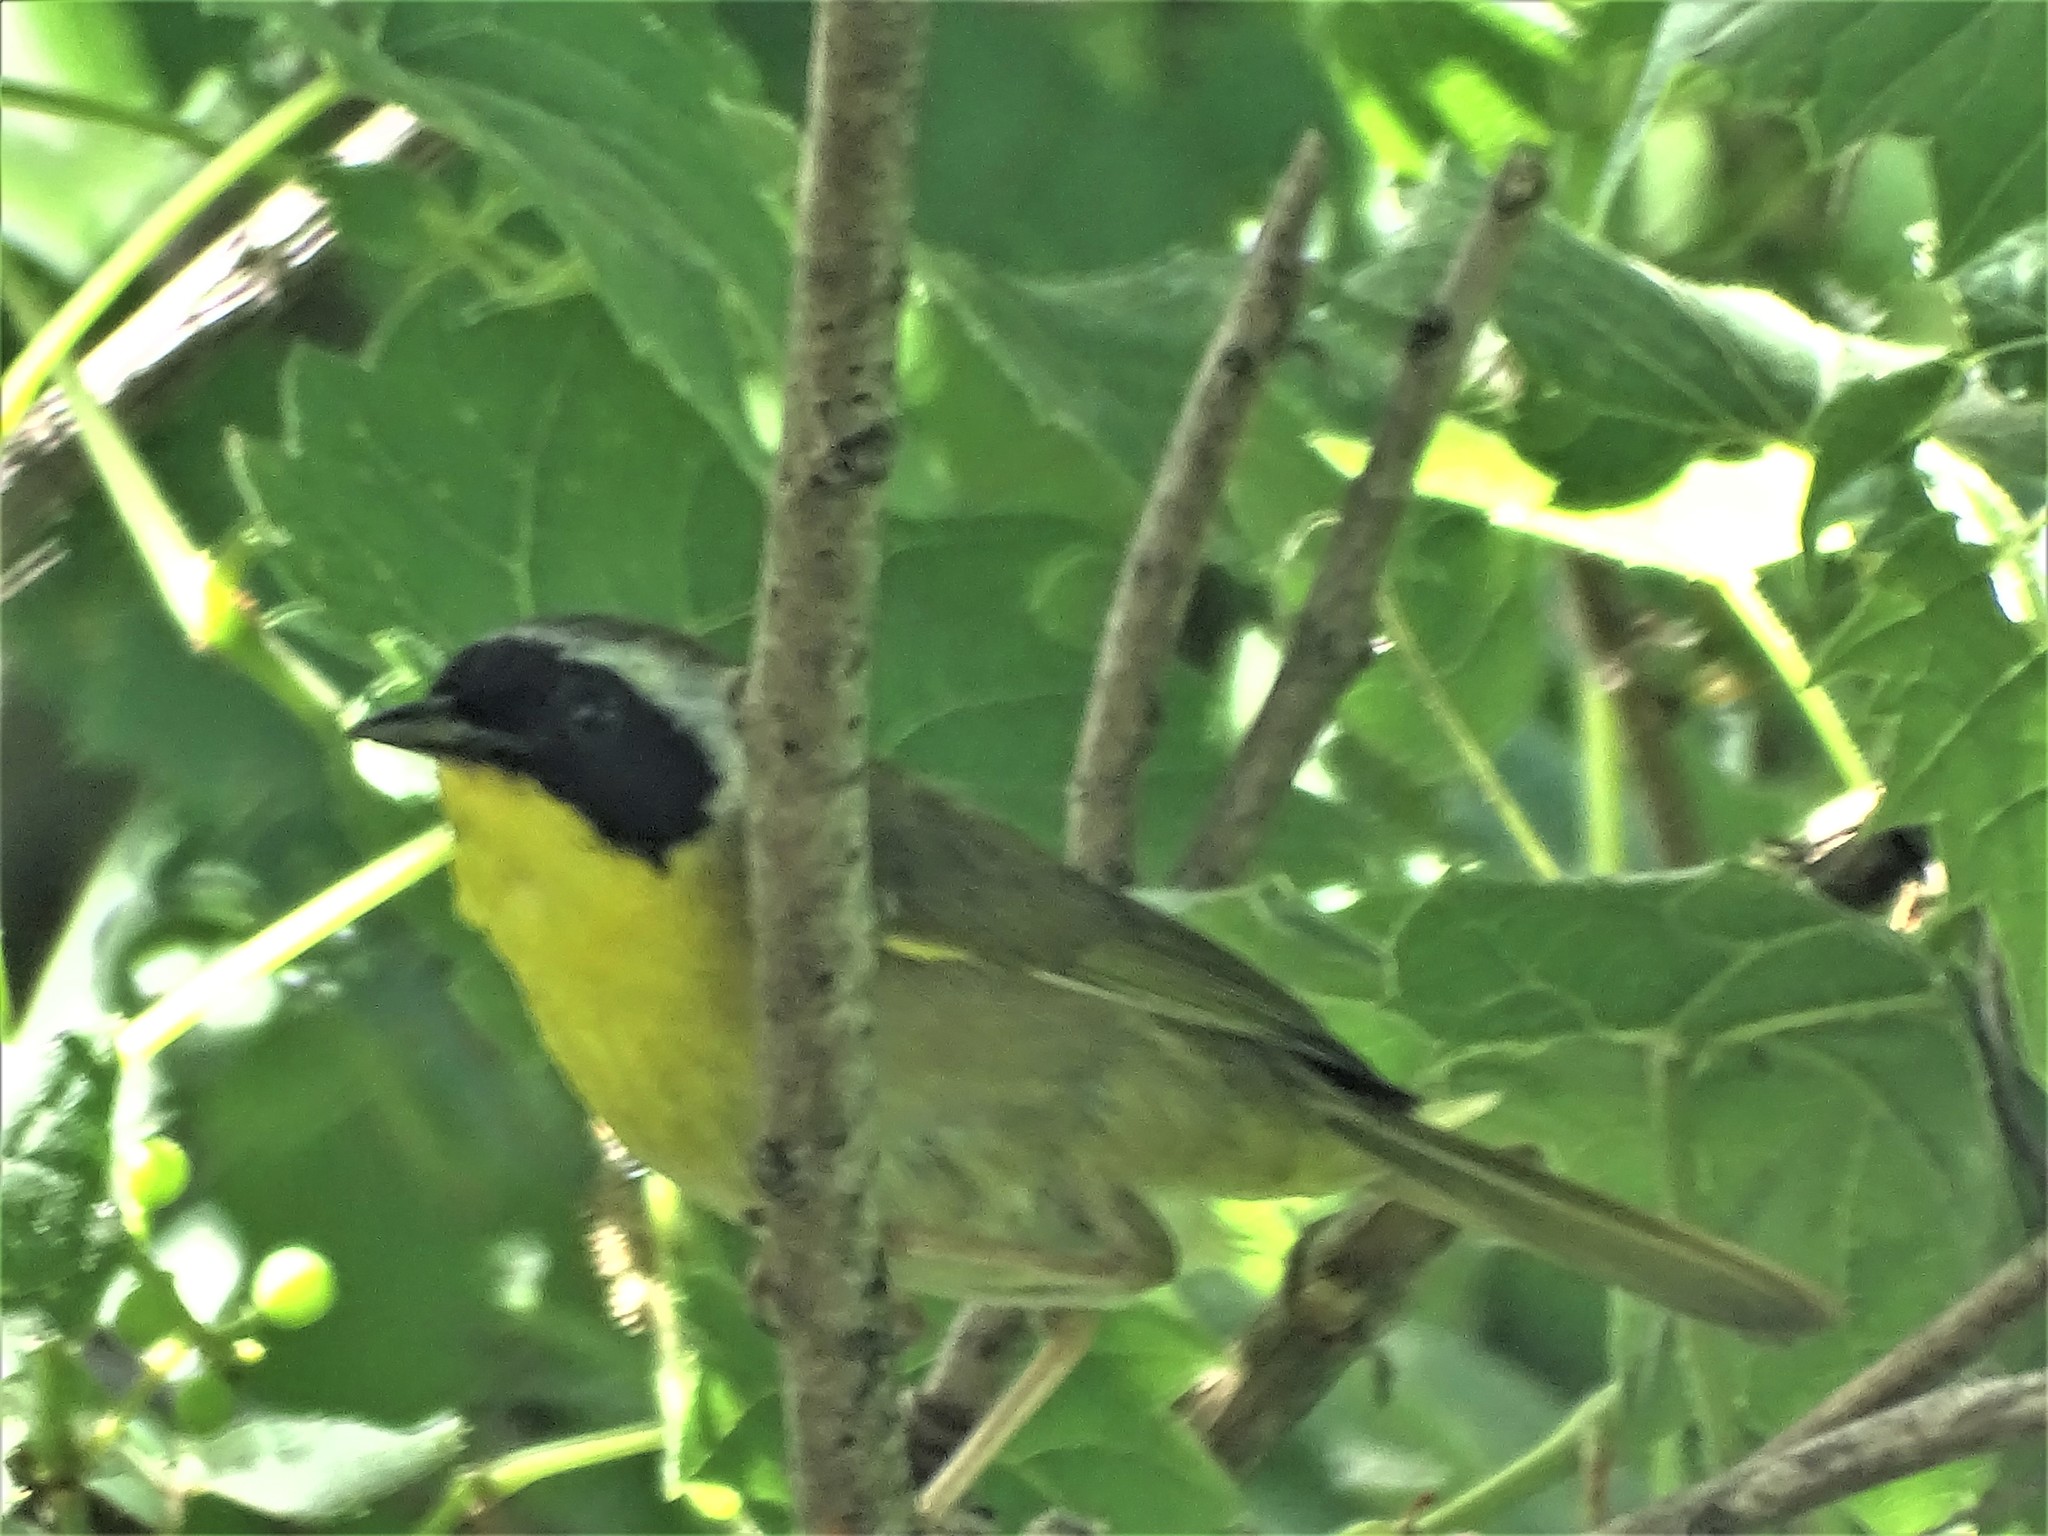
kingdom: Animalia
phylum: Chordata
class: Aves
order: Passeriformes
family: Parulidae
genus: Geothlypis
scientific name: Geothlypis trichas
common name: Common yellowthroat
